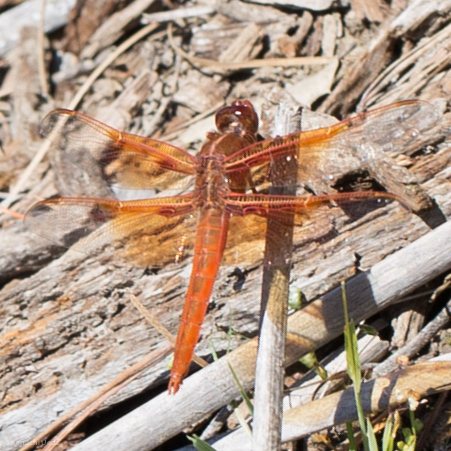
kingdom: Animalia
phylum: Arthropoda
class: Insecta
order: Odonata
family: Libellulidae
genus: Libellula
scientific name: Libellula saturata
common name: Flame skimmer
